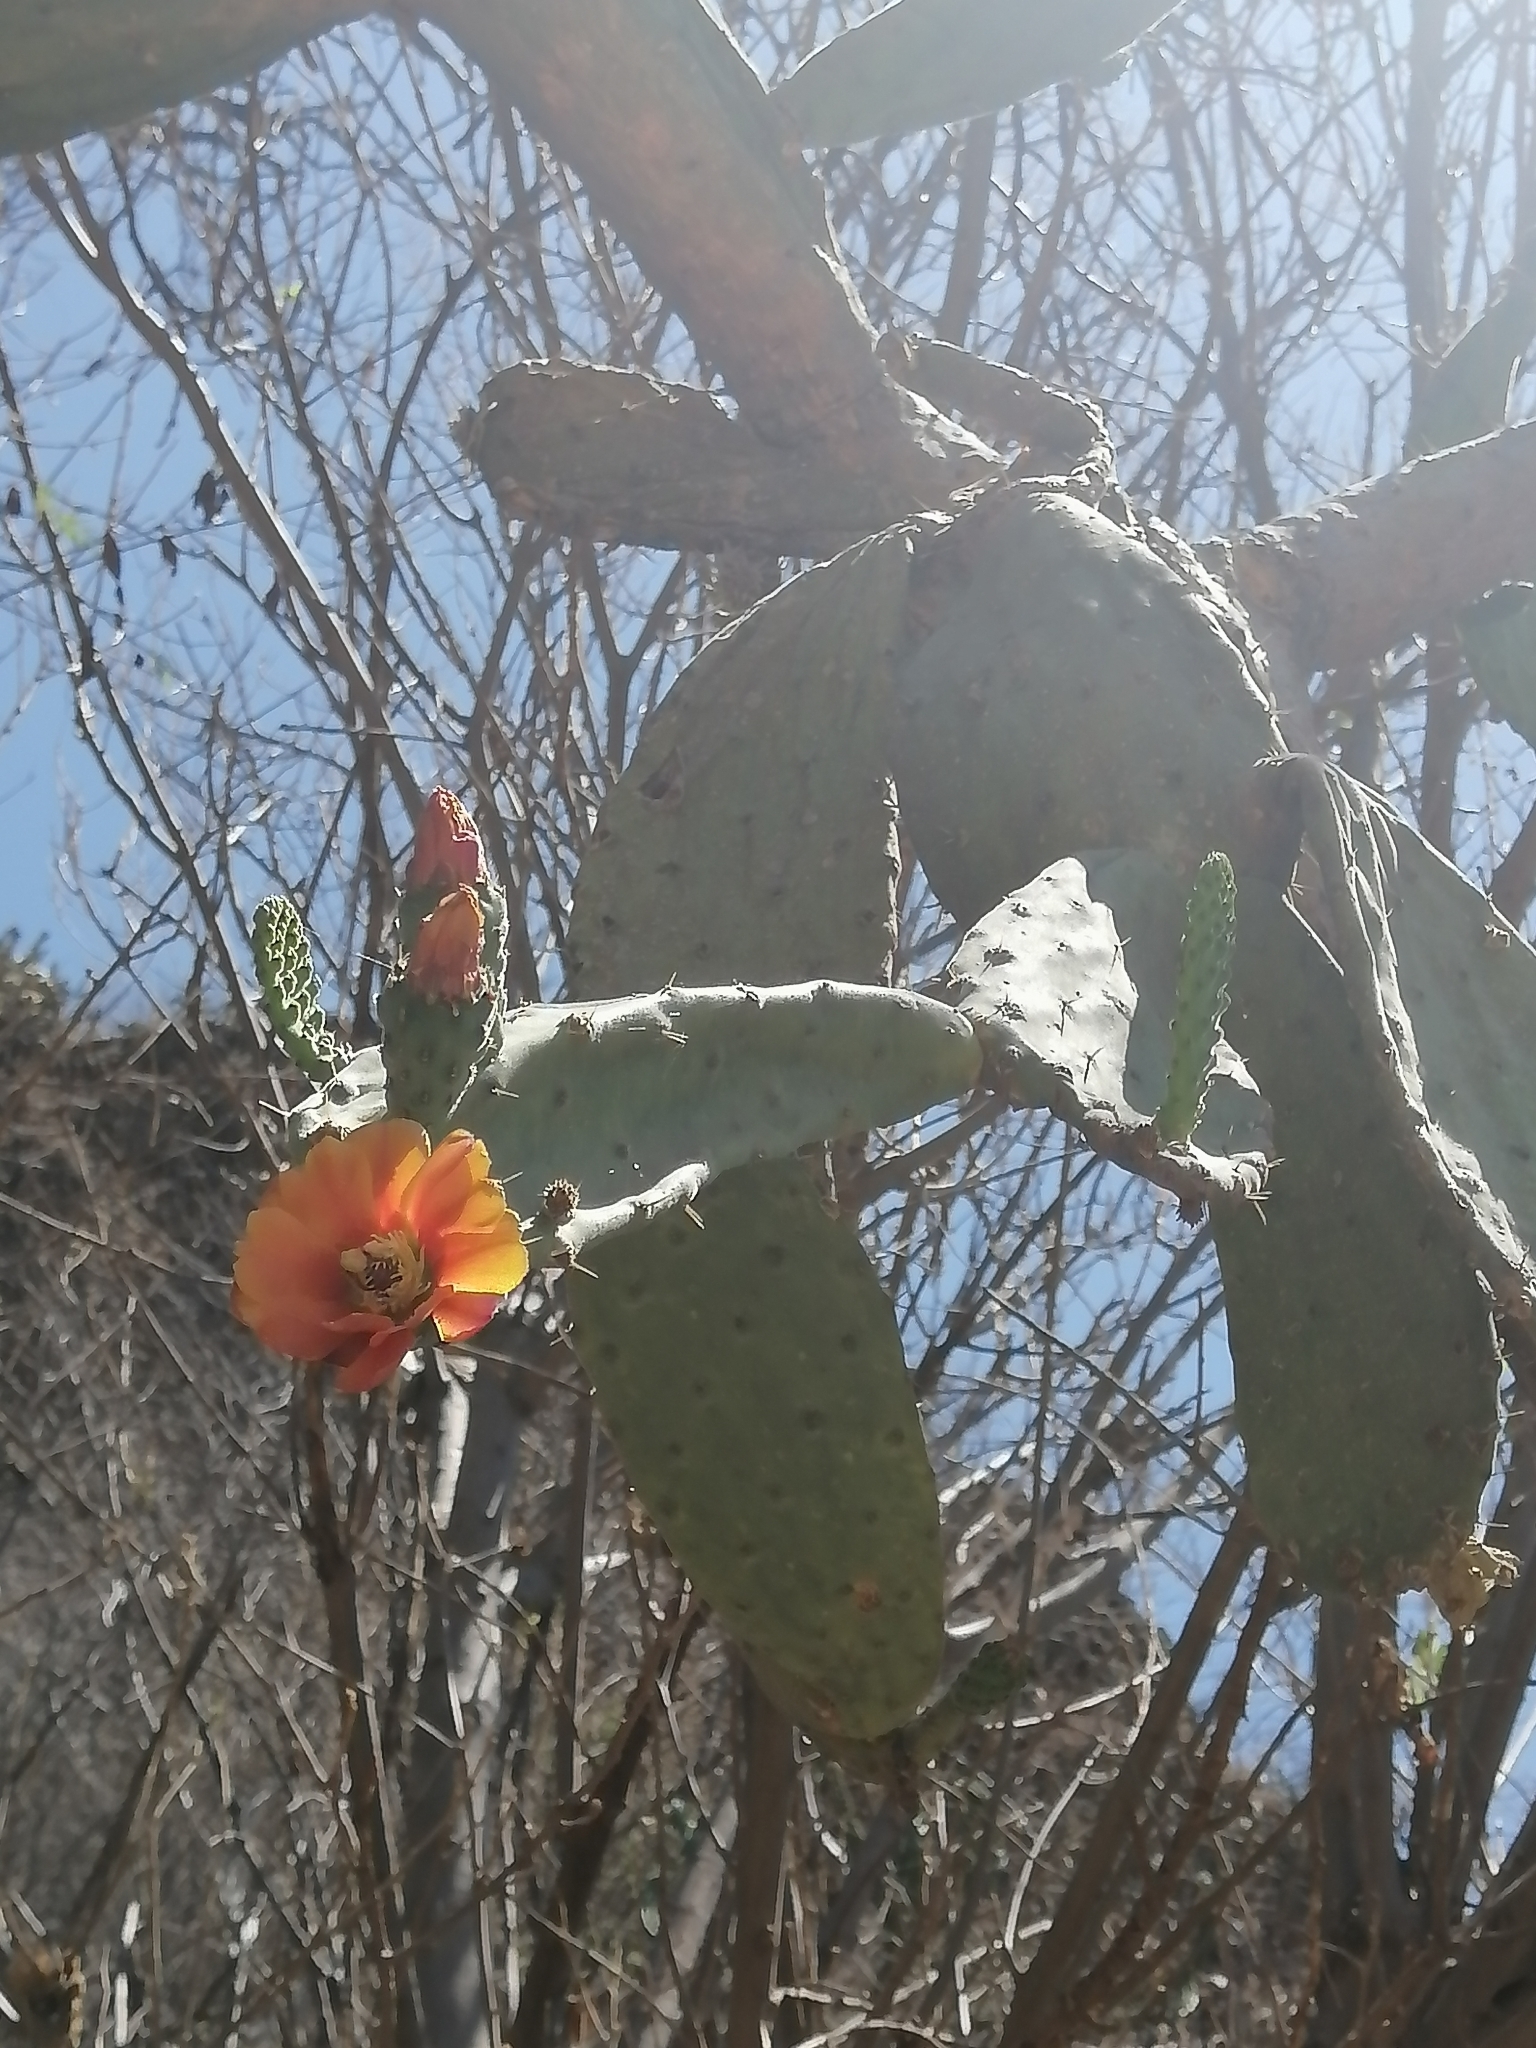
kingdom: Plantae
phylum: Tracheophyta
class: Magnoliopsida
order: Caryophyllales
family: Cactaceae
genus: Opuntia
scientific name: Opuntia tomentosa
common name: Woollyjoint pricklypear
